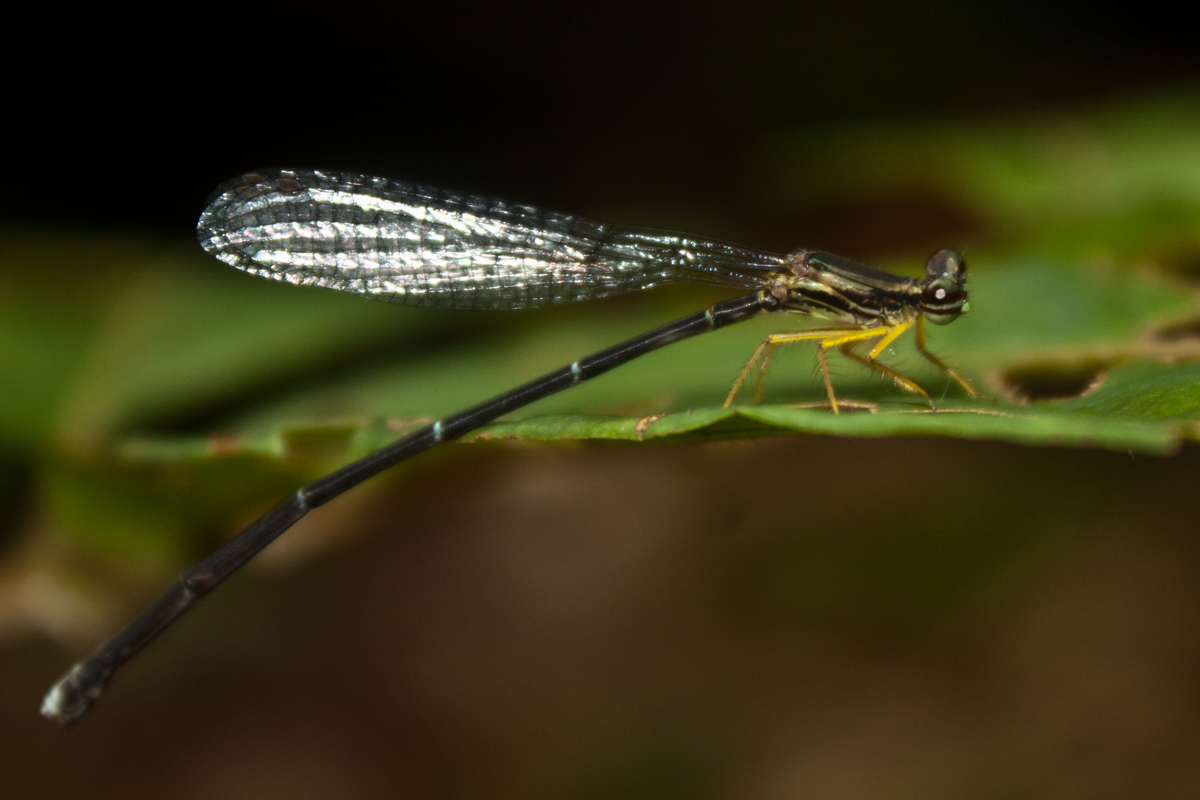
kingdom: Animalia
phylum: Arthropoda
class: Insecta
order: Odonata
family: Platycnemididae
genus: Copera
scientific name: Copera marginipes
